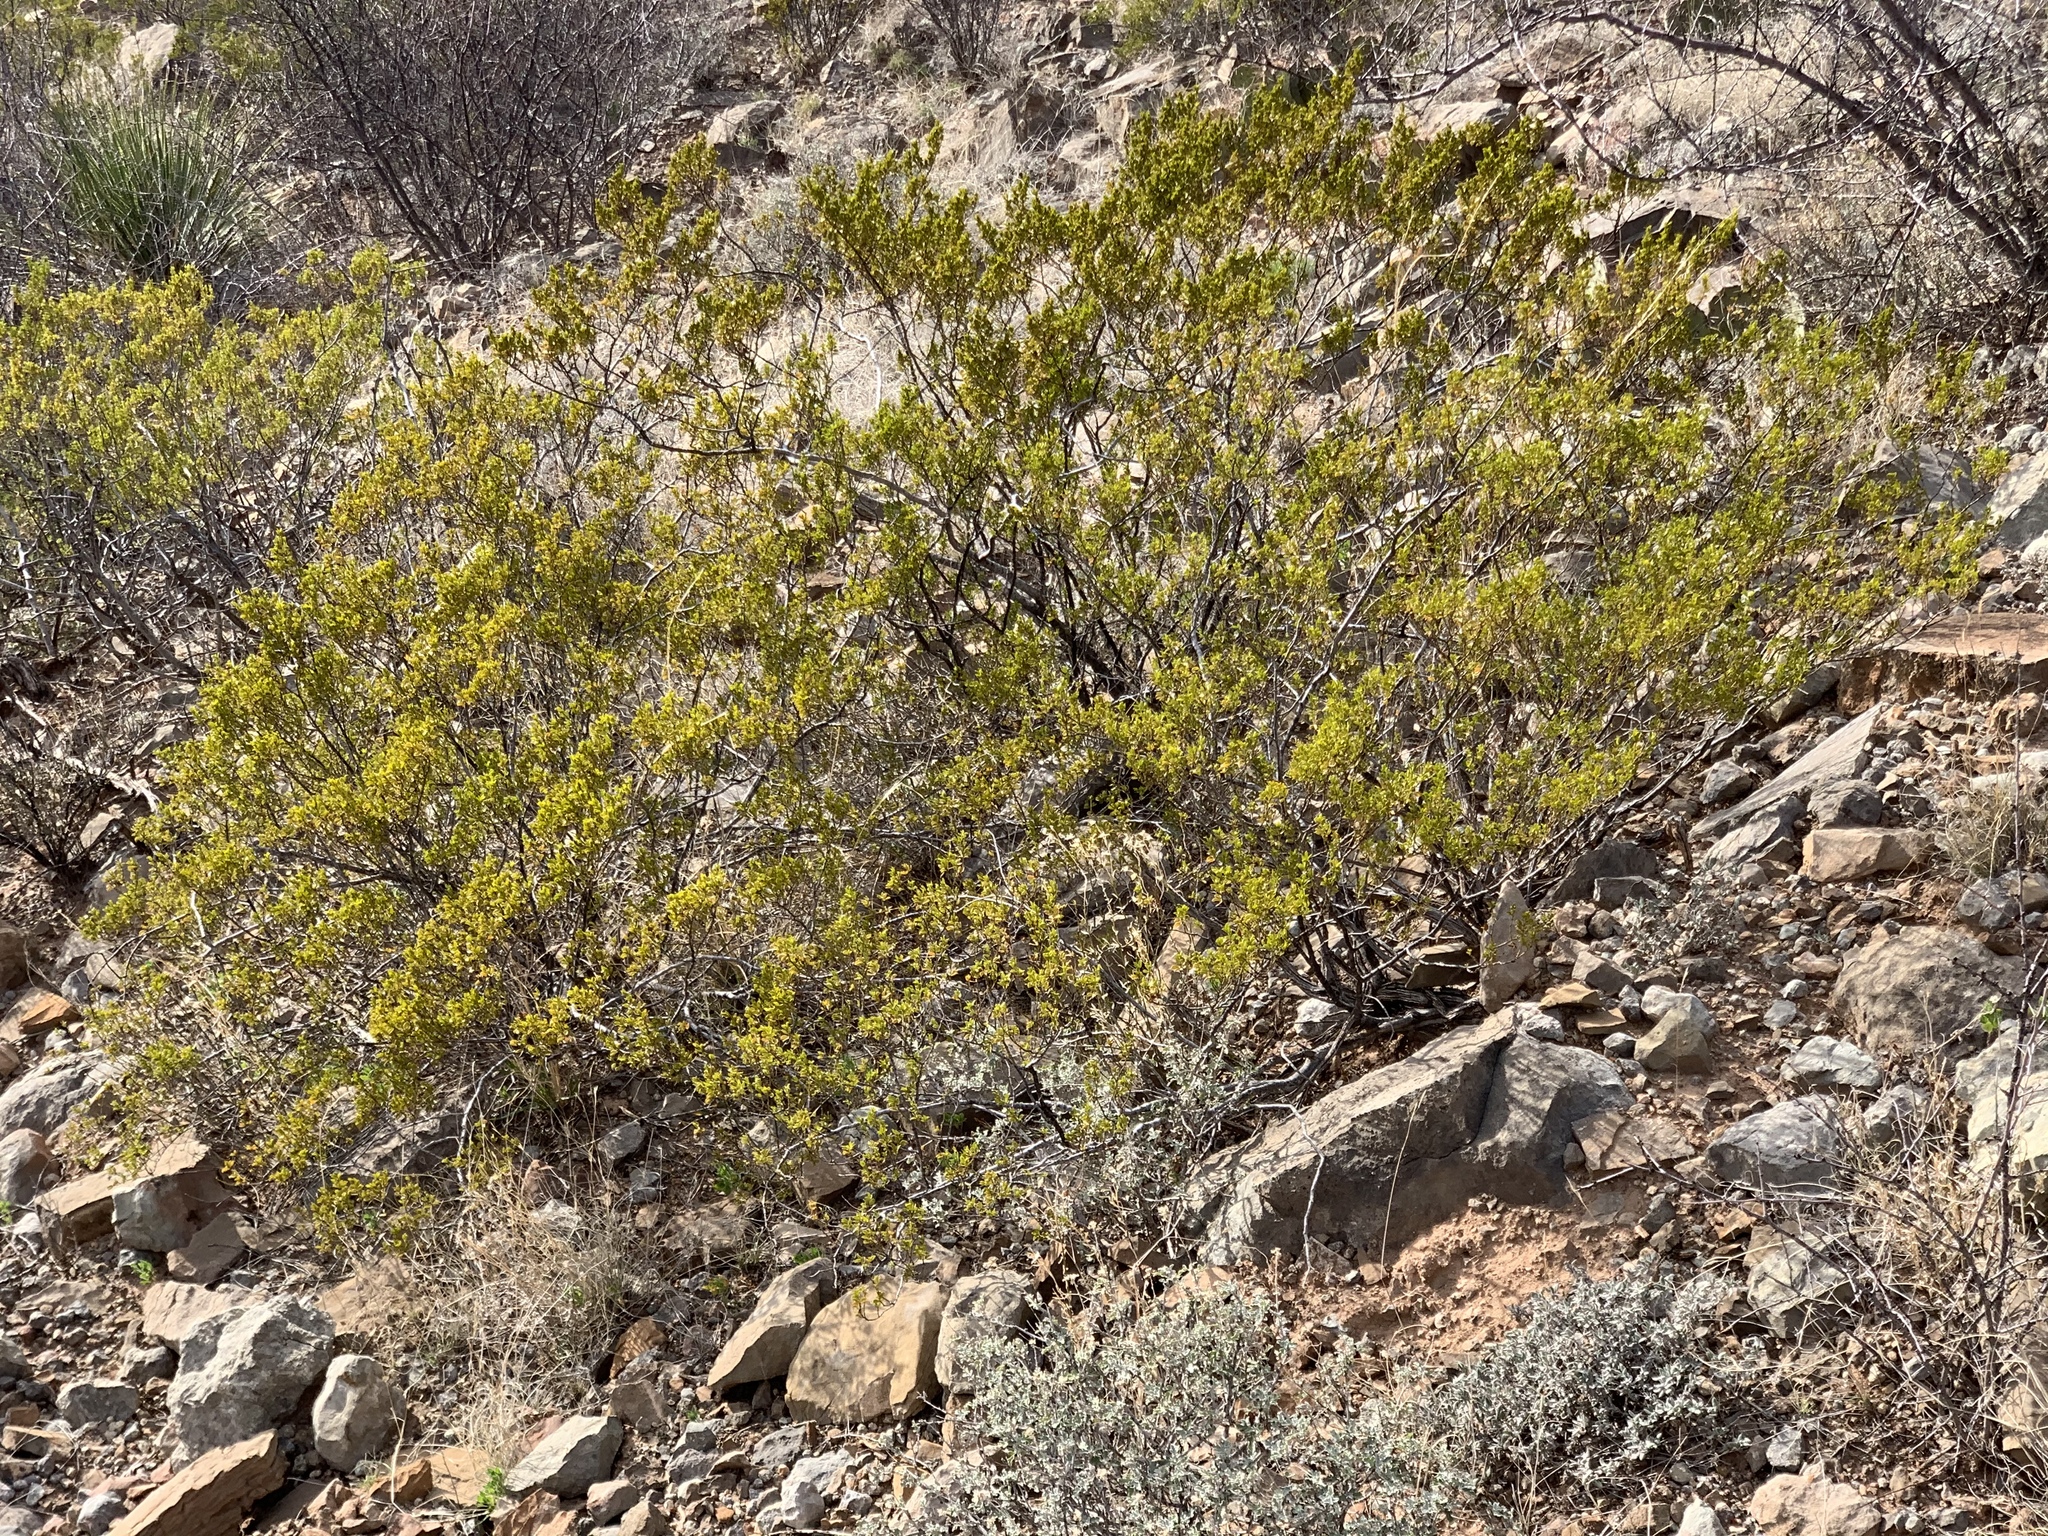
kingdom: Plantae
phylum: Tracheophyta
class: Magnoliopsida
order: Zygophyllales
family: Zygophyllaceae
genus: Larrea
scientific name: Larrea tridentata
